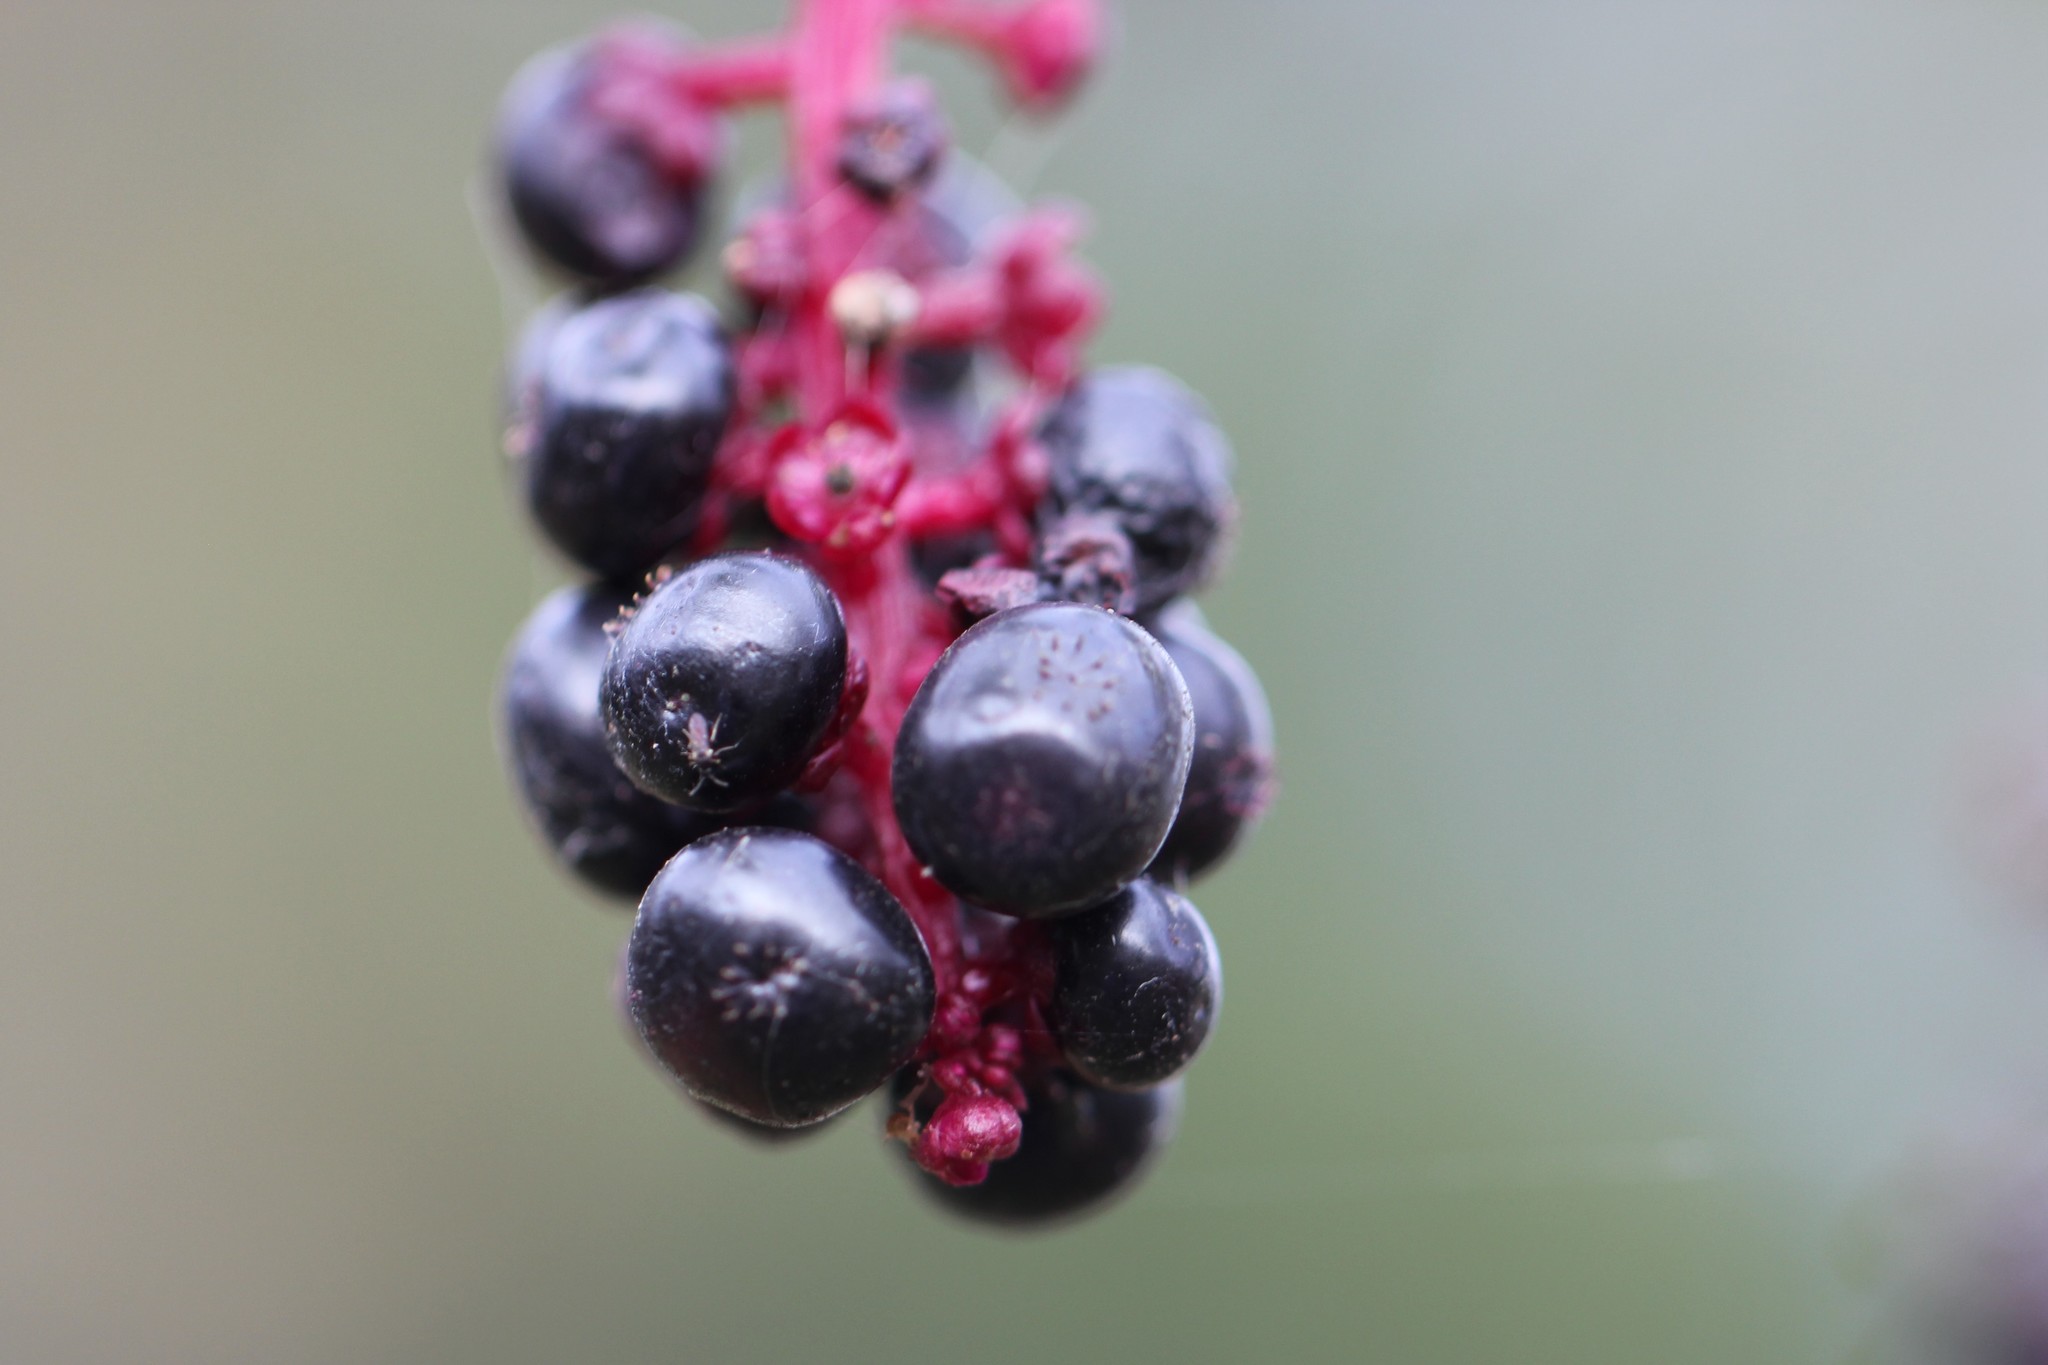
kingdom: Plantae
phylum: Tracheophyta
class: Magnoliopsida
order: Caryophyllales
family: Phytolaccaceae
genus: Phytolacca
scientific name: Phytolacca americana
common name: American pokeweed
